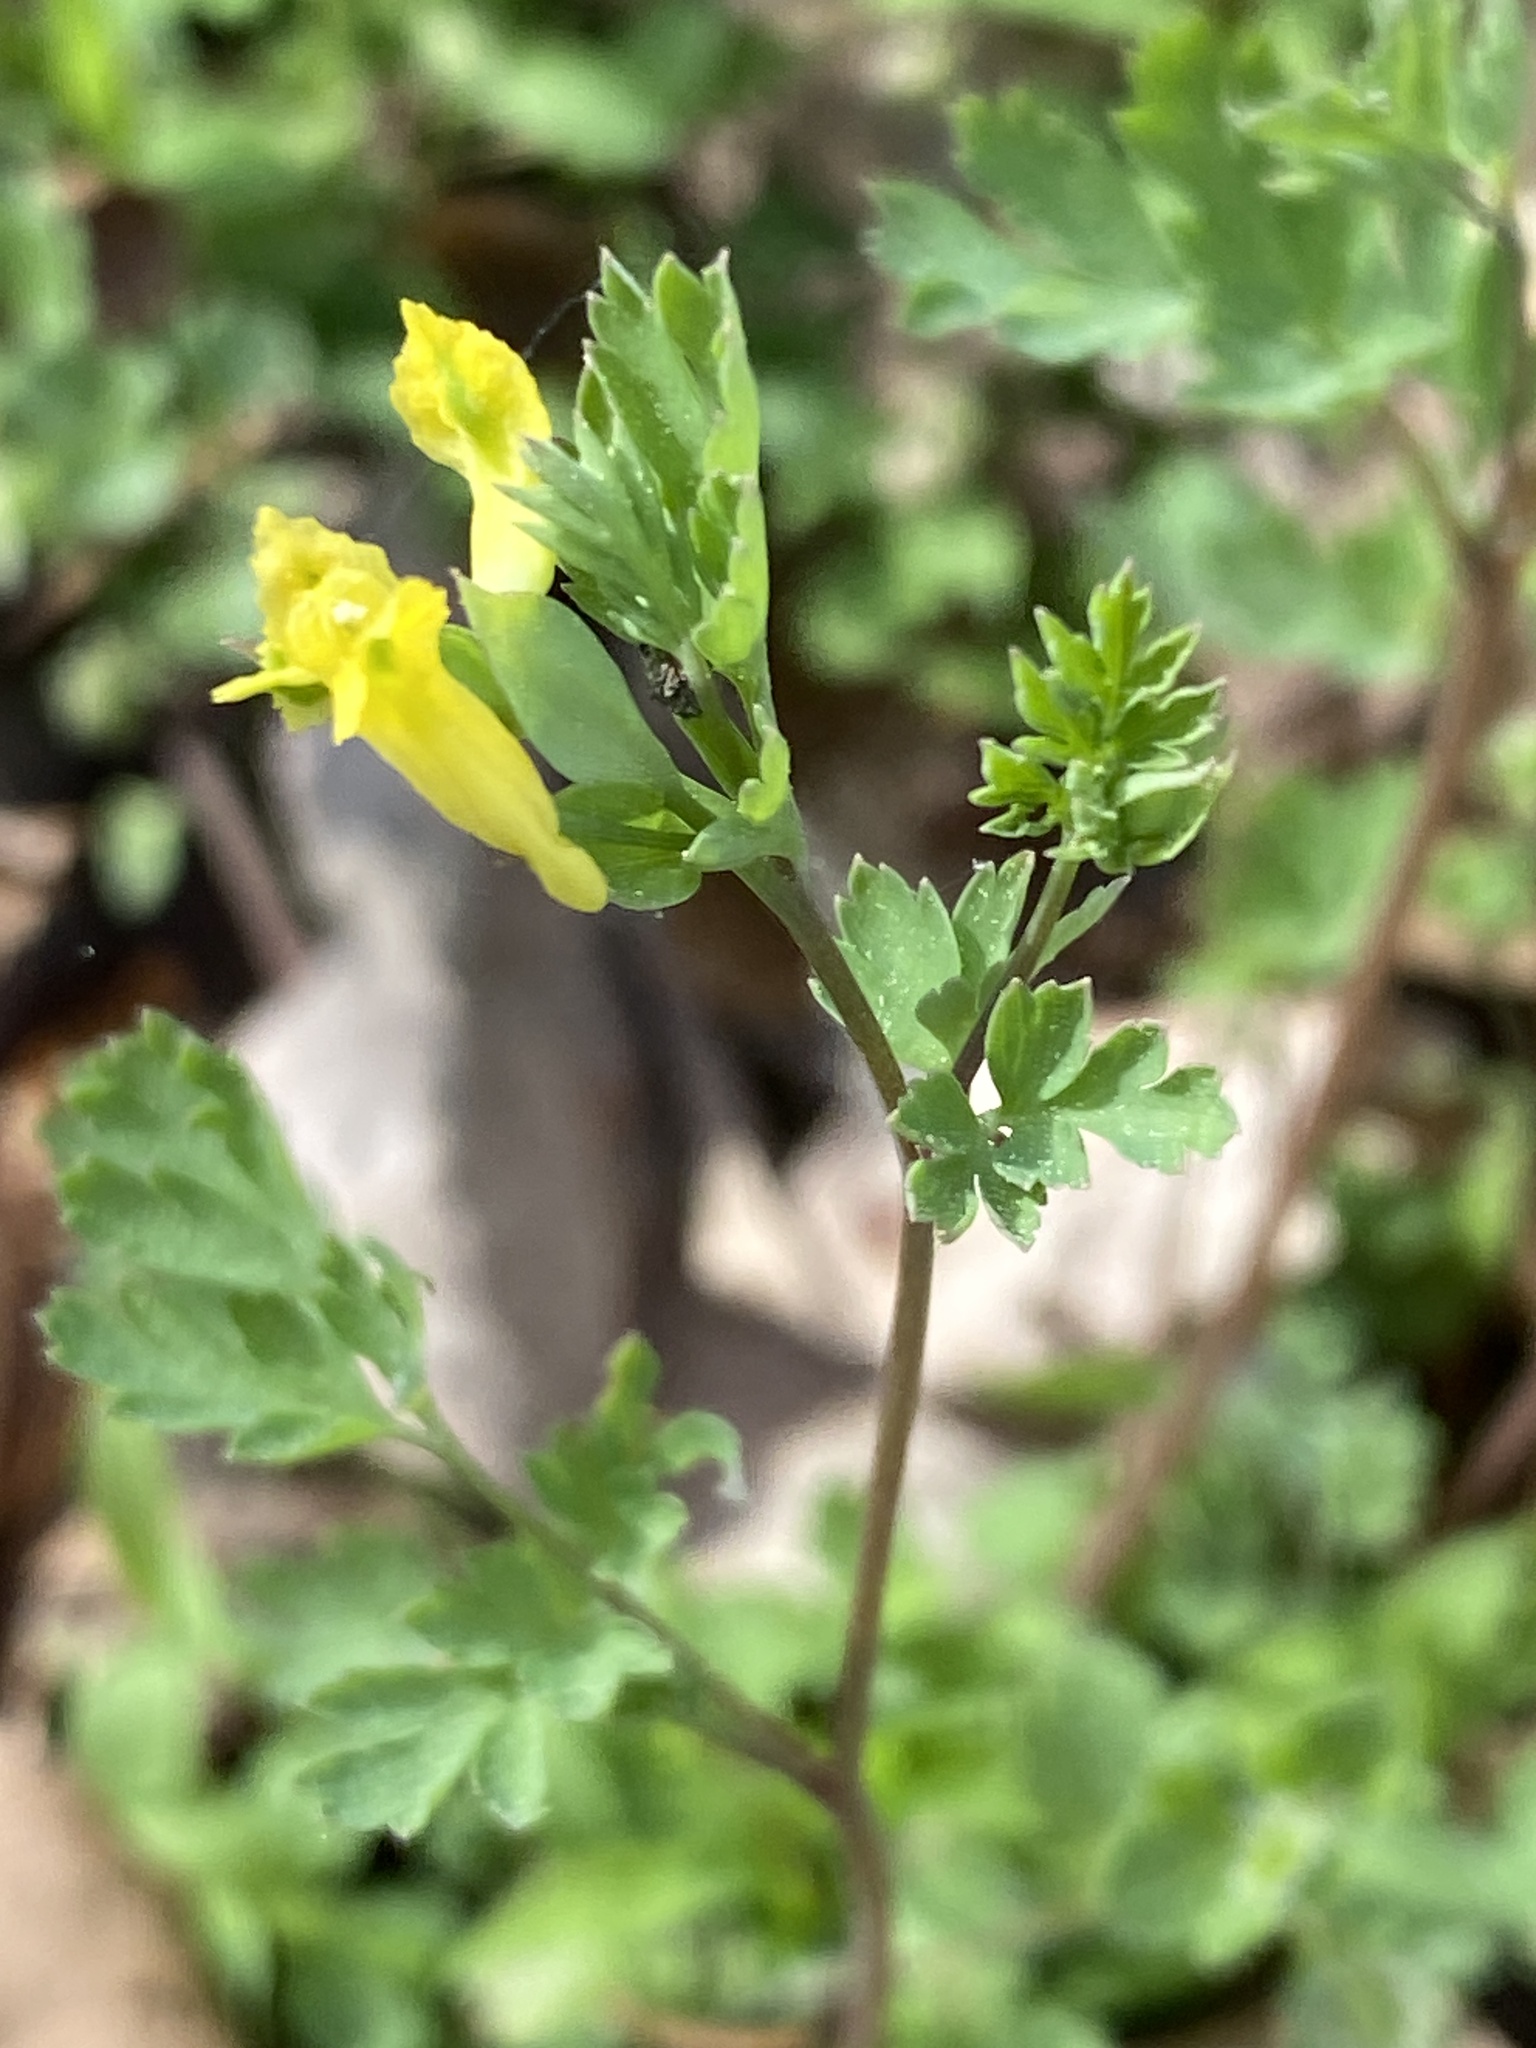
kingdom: Plantae
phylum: Tracheophyta
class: Magnoliopsida
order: Ranunculales
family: Papaveraceae
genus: Corydalis
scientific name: Corydalis flavula
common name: Yellow corydalis
